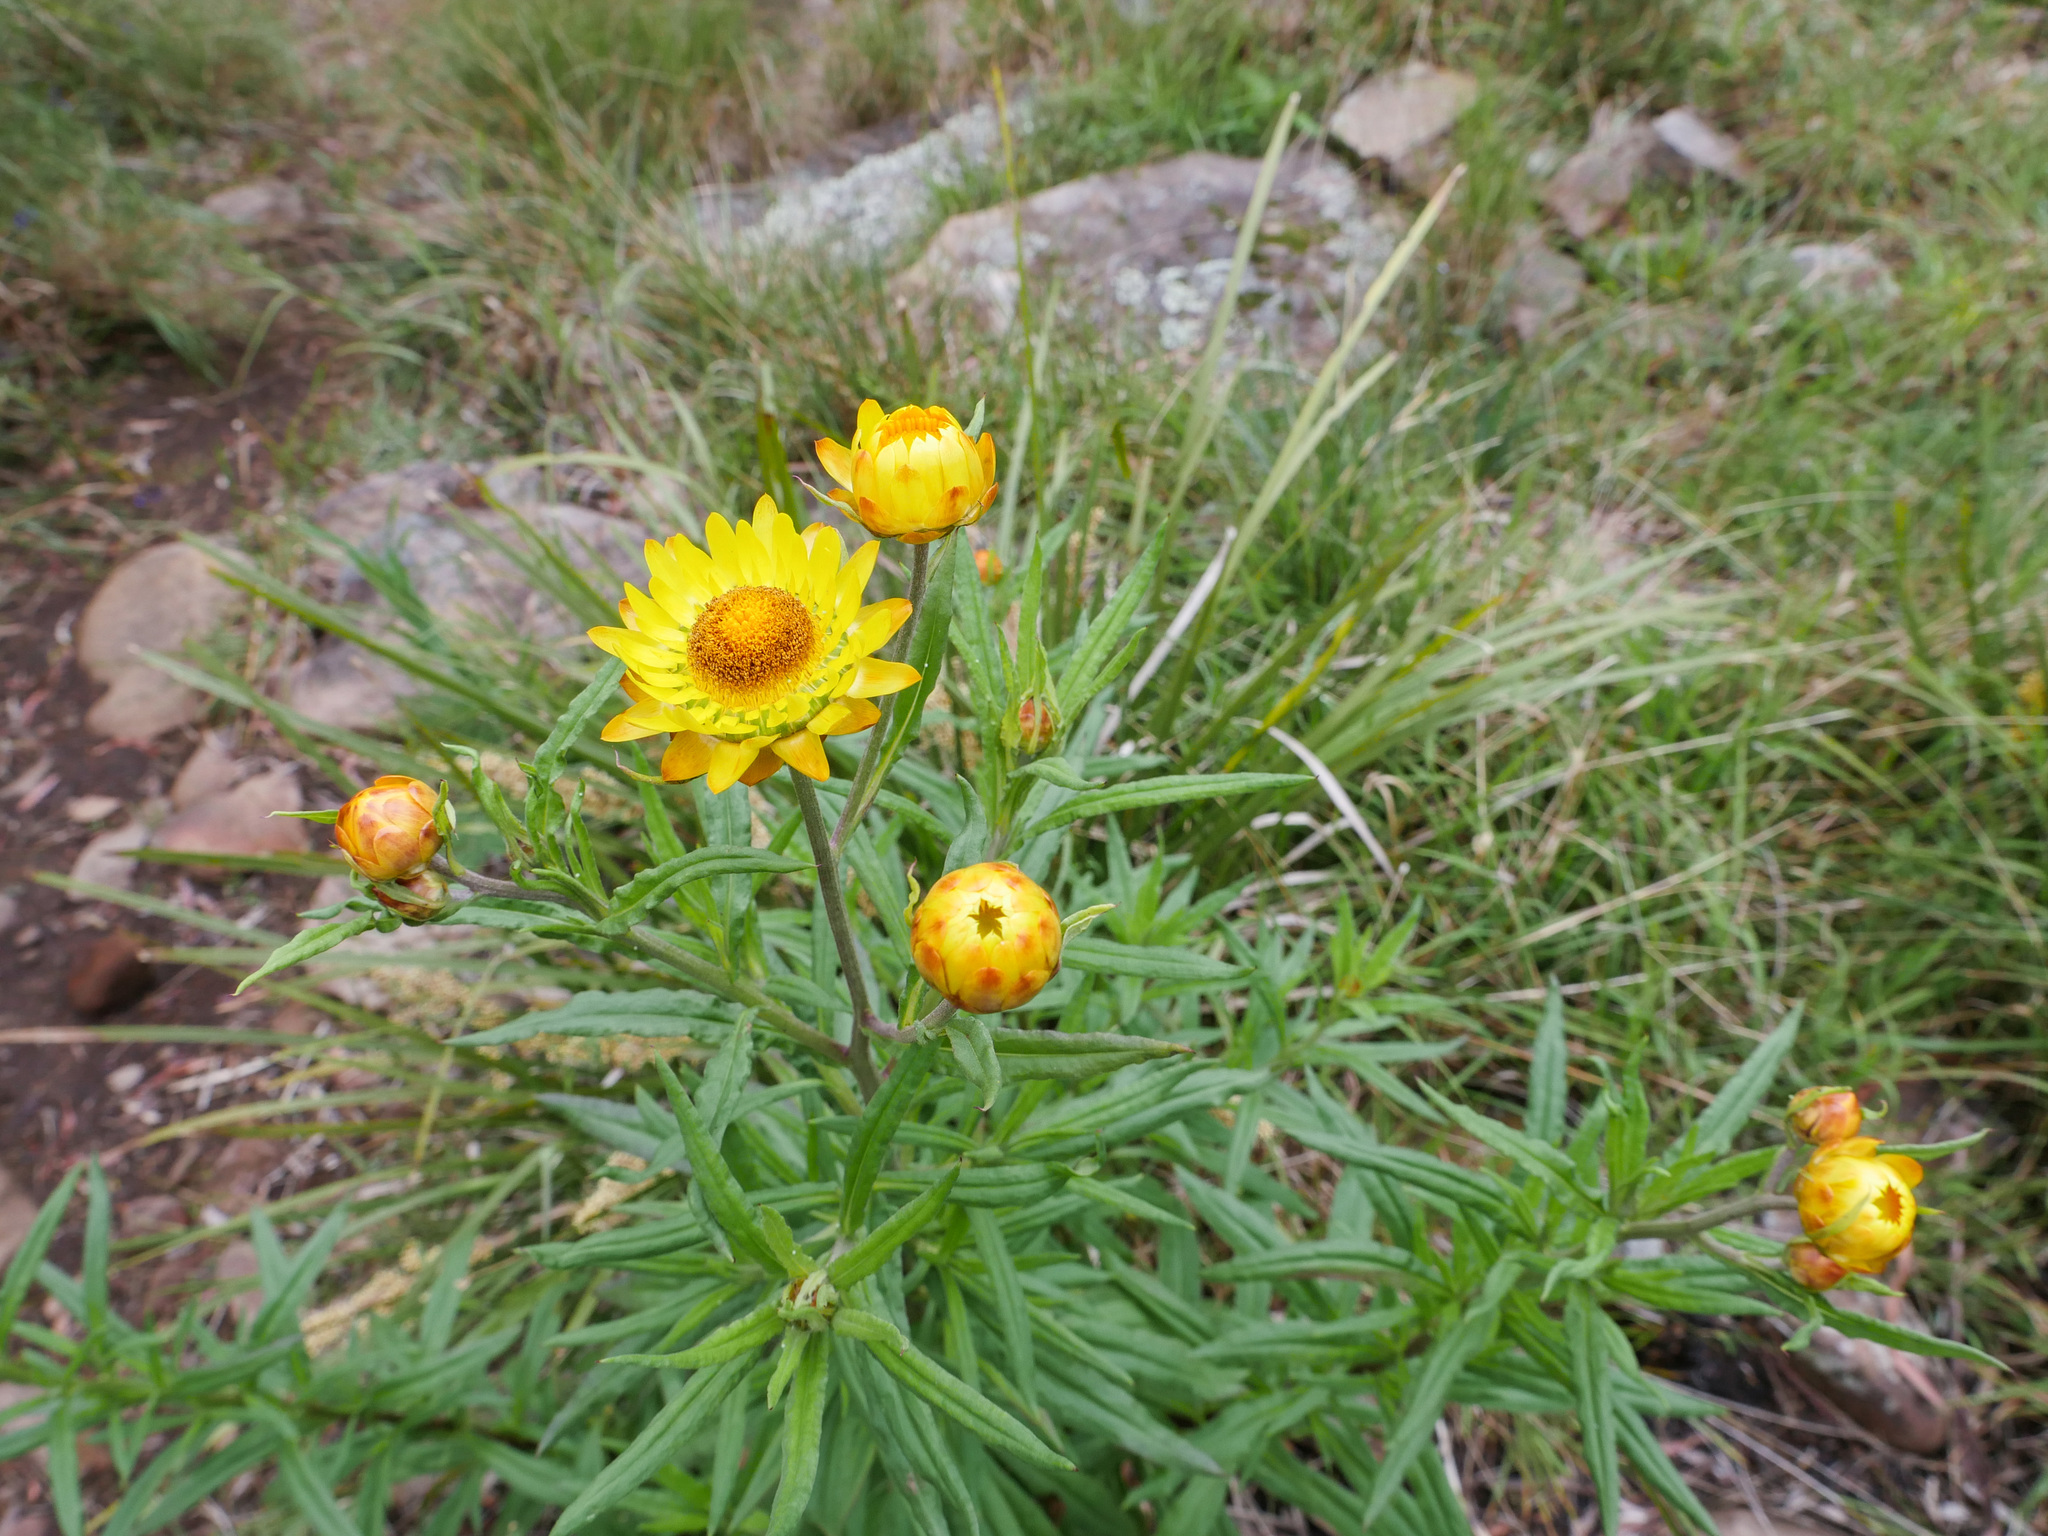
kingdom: Plantae
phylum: Tracheophyta
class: Magnoliopsida
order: Asterales
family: Asteraceae
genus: Xerochrysum
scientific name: Xerochrysum bracteatum
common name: Bracted strawflower
